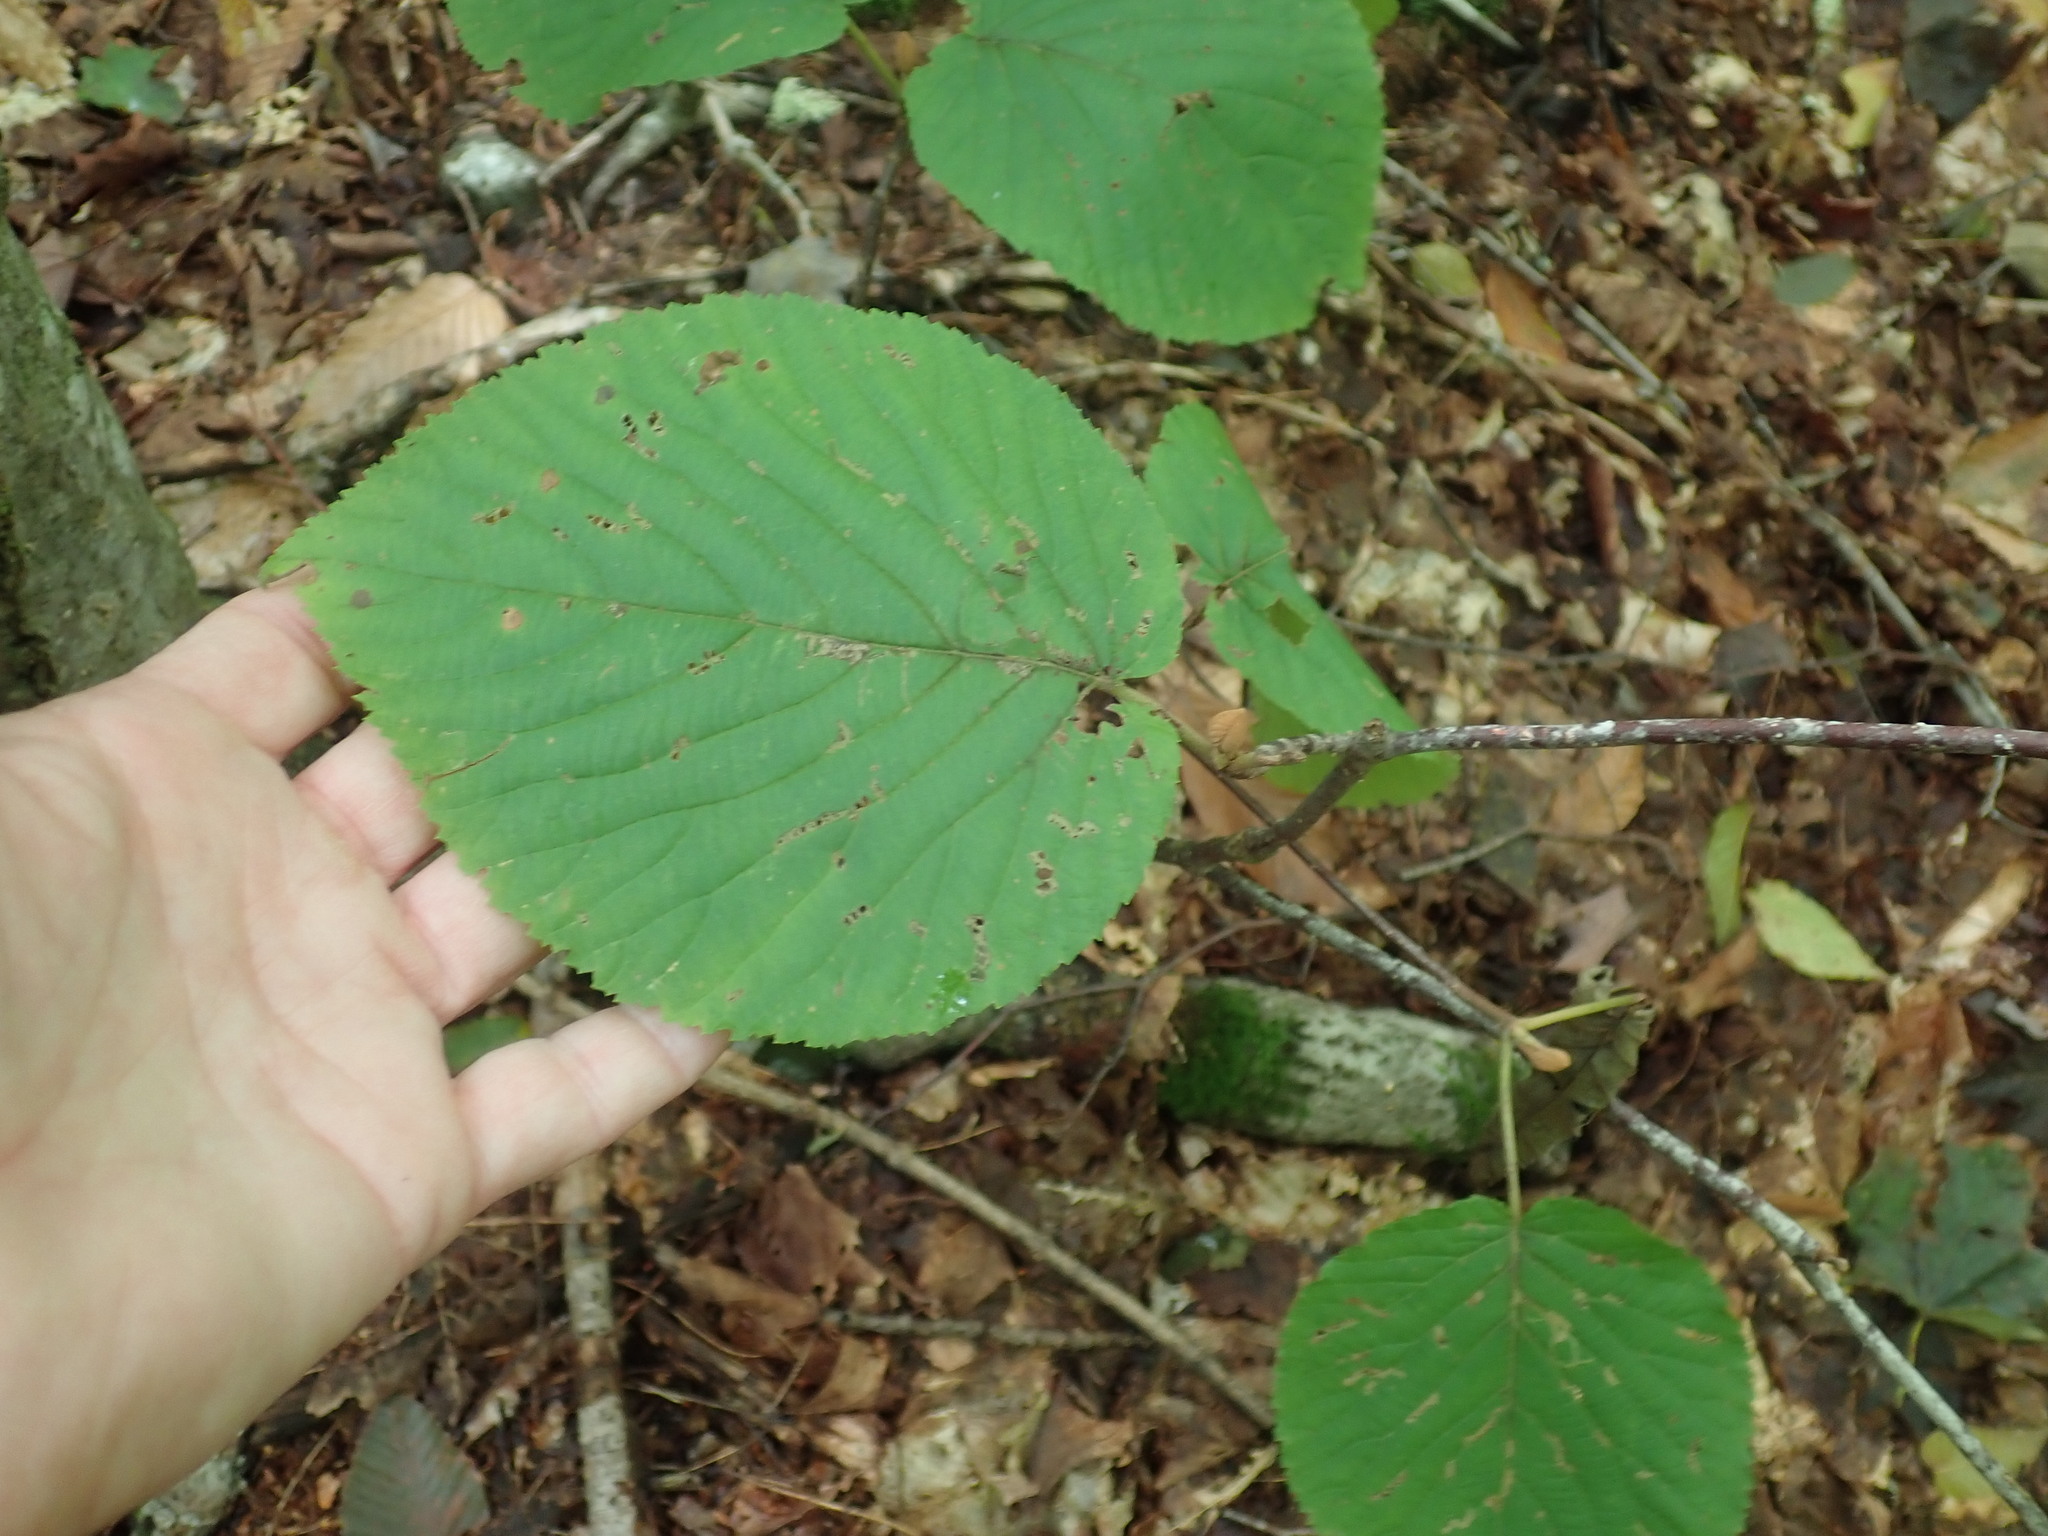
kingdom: Plantae
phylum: Tracheophyta
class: Magnoliopsida
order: Dipsacales
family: Viburnaceae
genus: Viburnum
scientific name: Viburnum lantanoides
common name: Hobblebush
